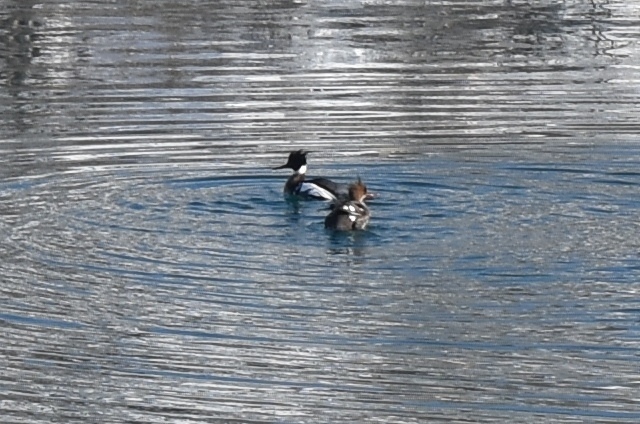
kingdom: Animalia
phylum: Chordata
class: Aves
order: Anseriformes
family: Anatidae
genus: Mergus
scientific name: Mergus serrator
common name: Red-breasted merganser
